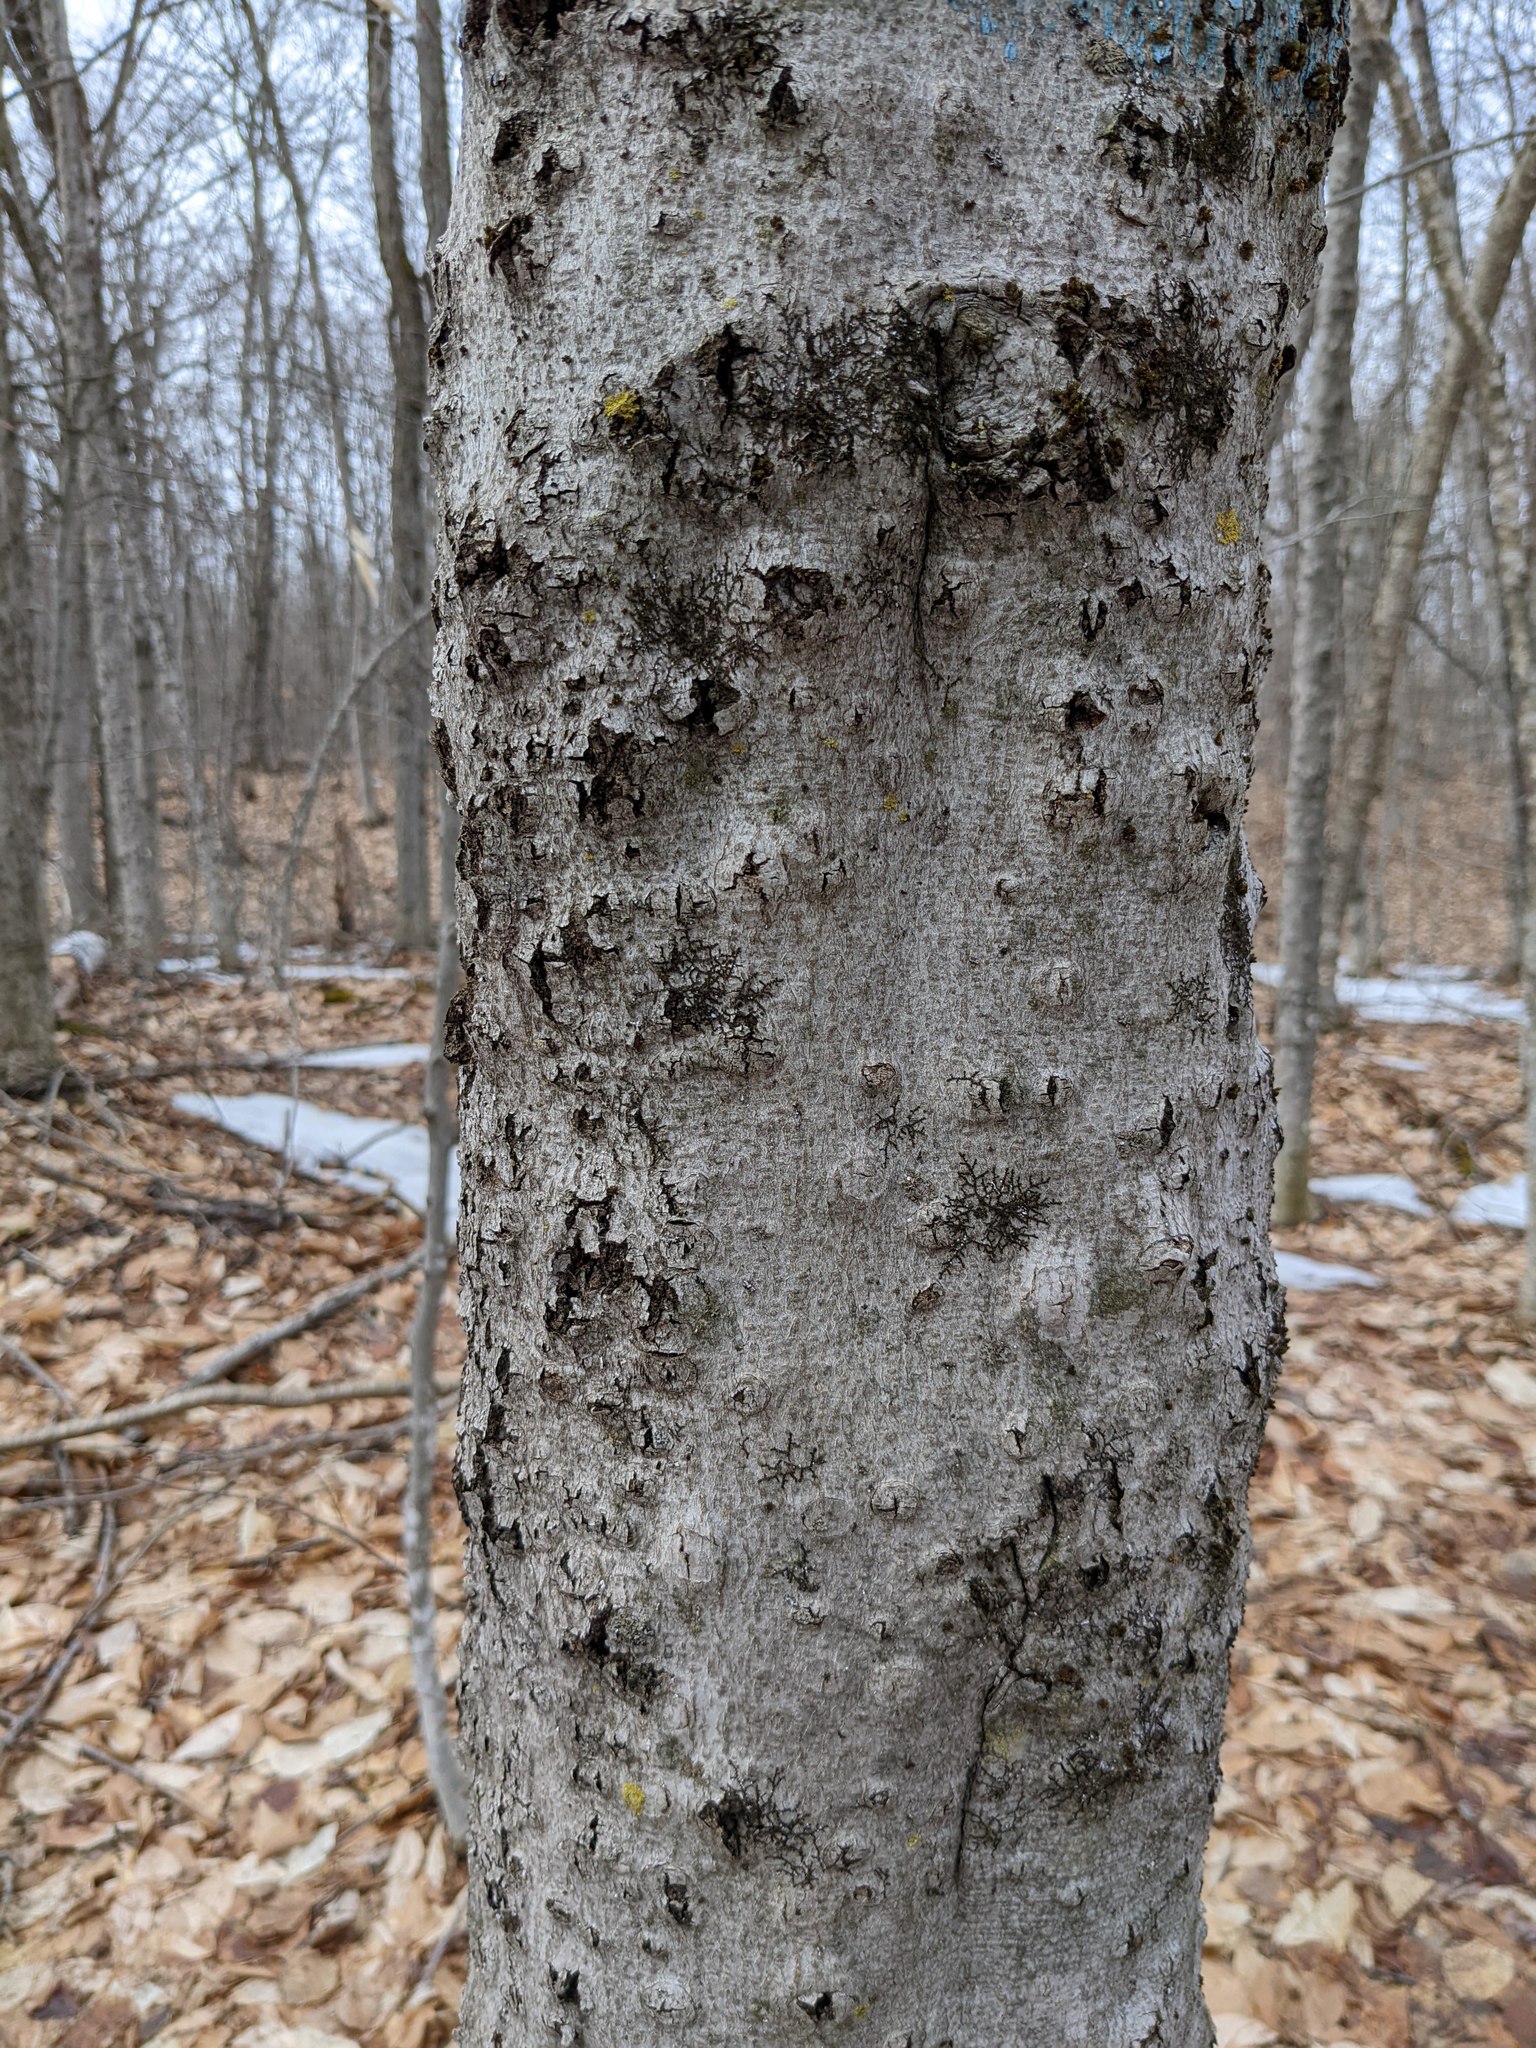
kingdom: Fungi
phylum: Ascomycota
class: Sordariomycetes
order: Hypocreales
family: Nectriaceae
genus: Neonectria
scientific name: Neonectria faginata
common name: Beech bark canker
